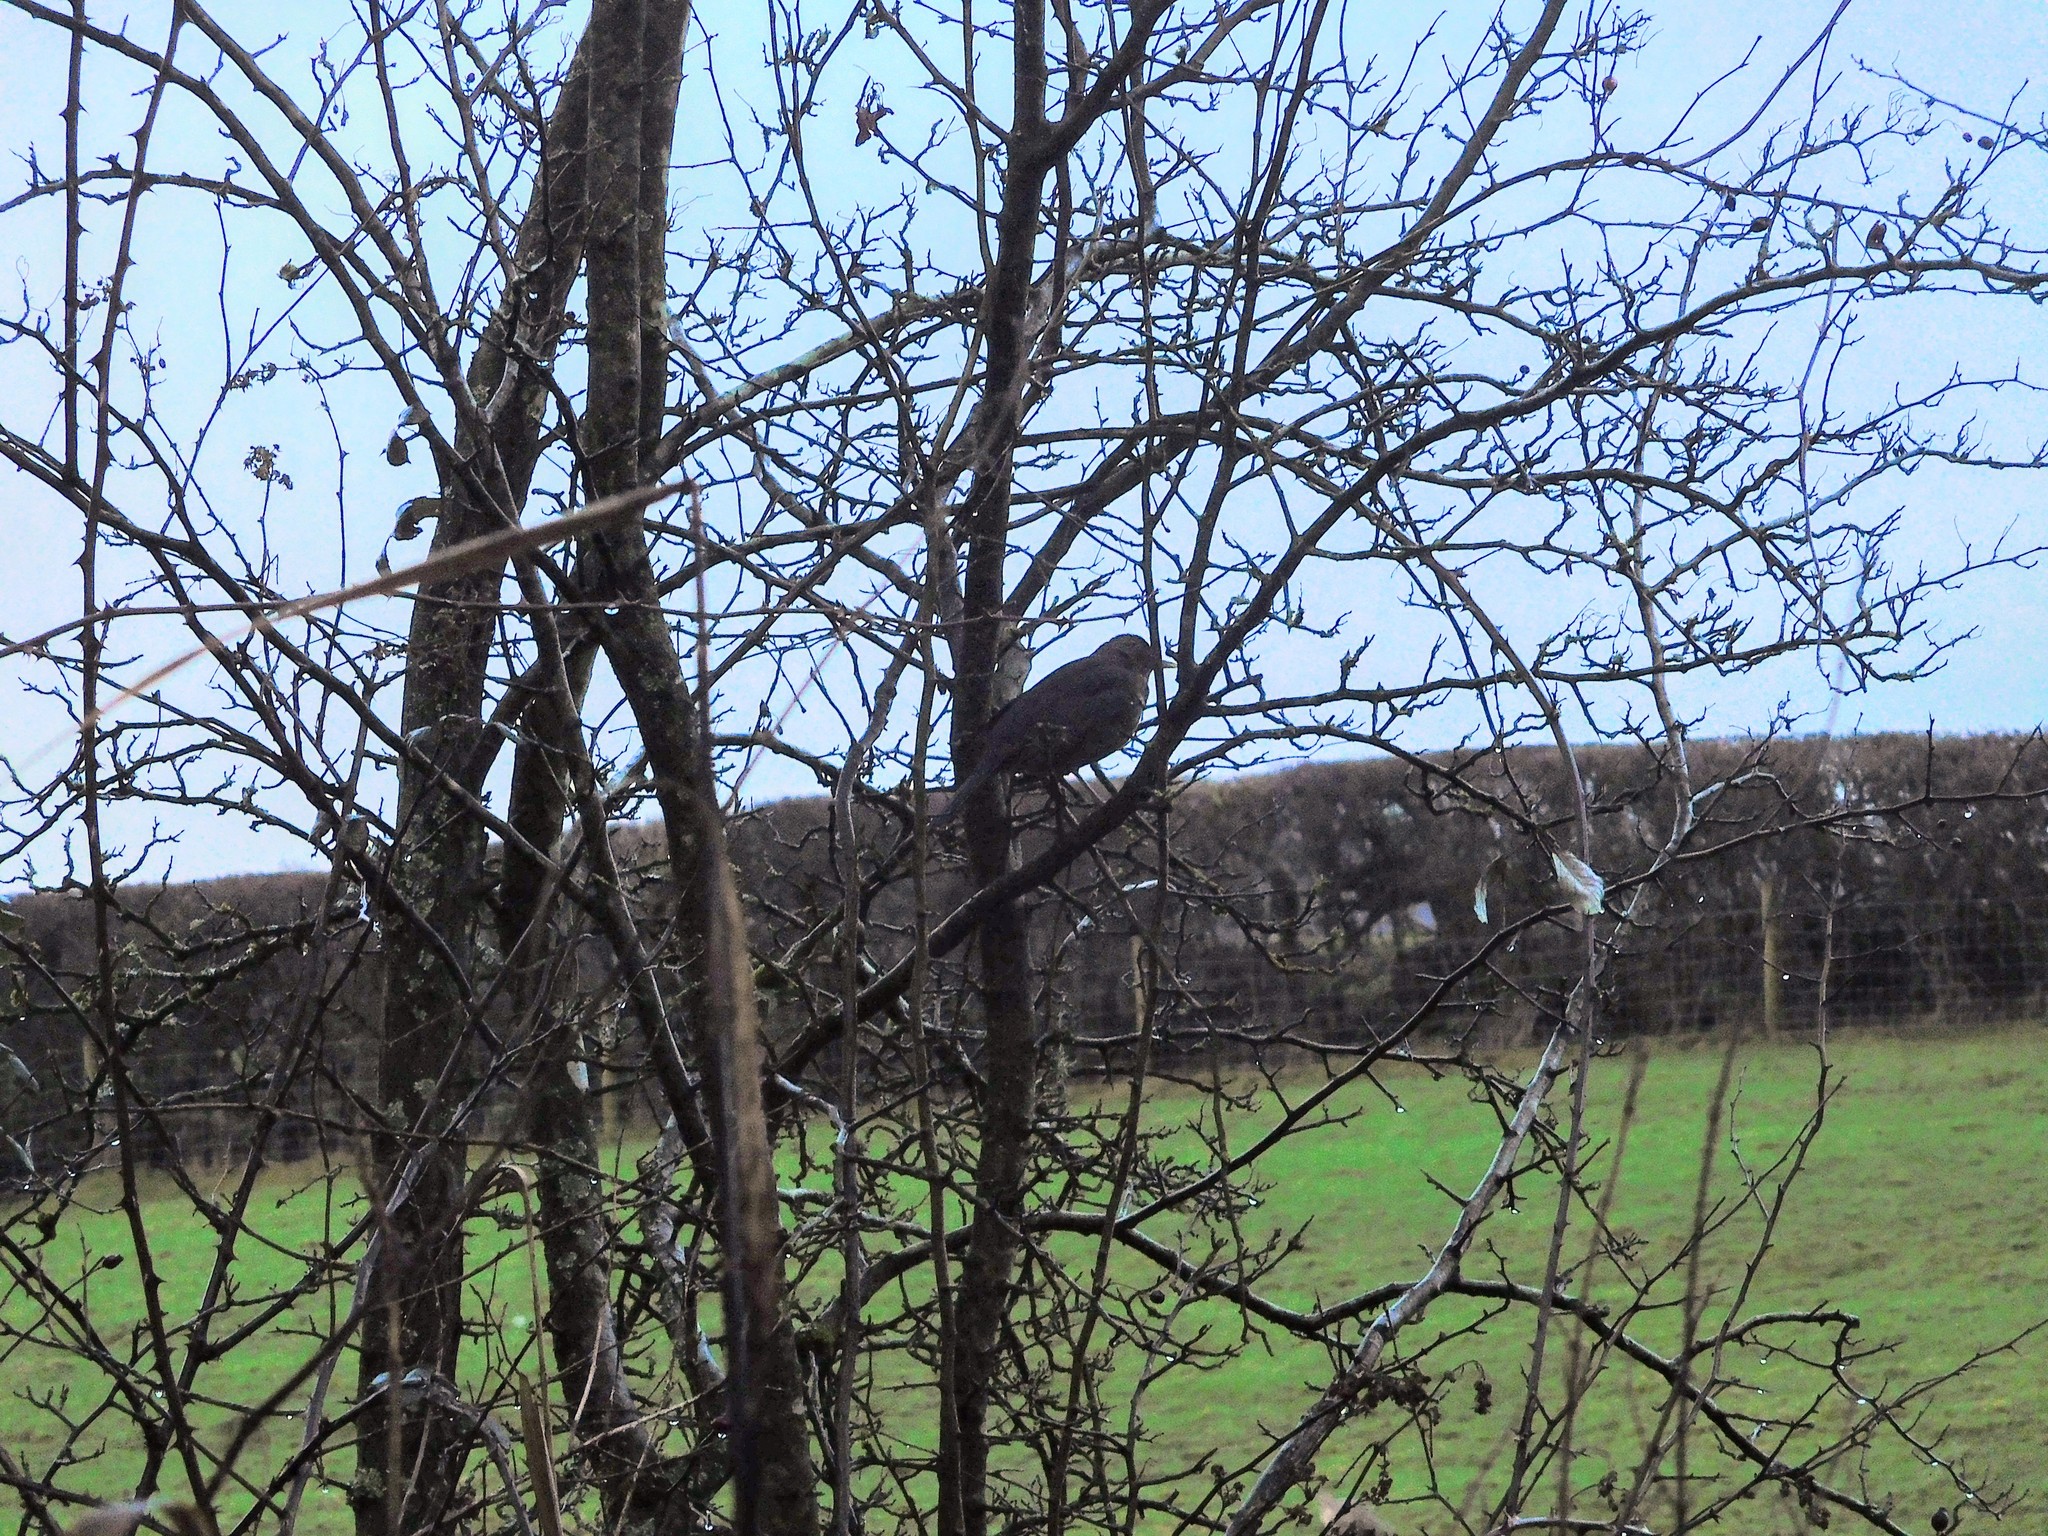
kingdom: Animalia
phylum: Chordata
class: Aves
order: Passeriformes
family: Turdidae
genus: Turdus
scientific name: Turdus merula
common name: Common blackbird
